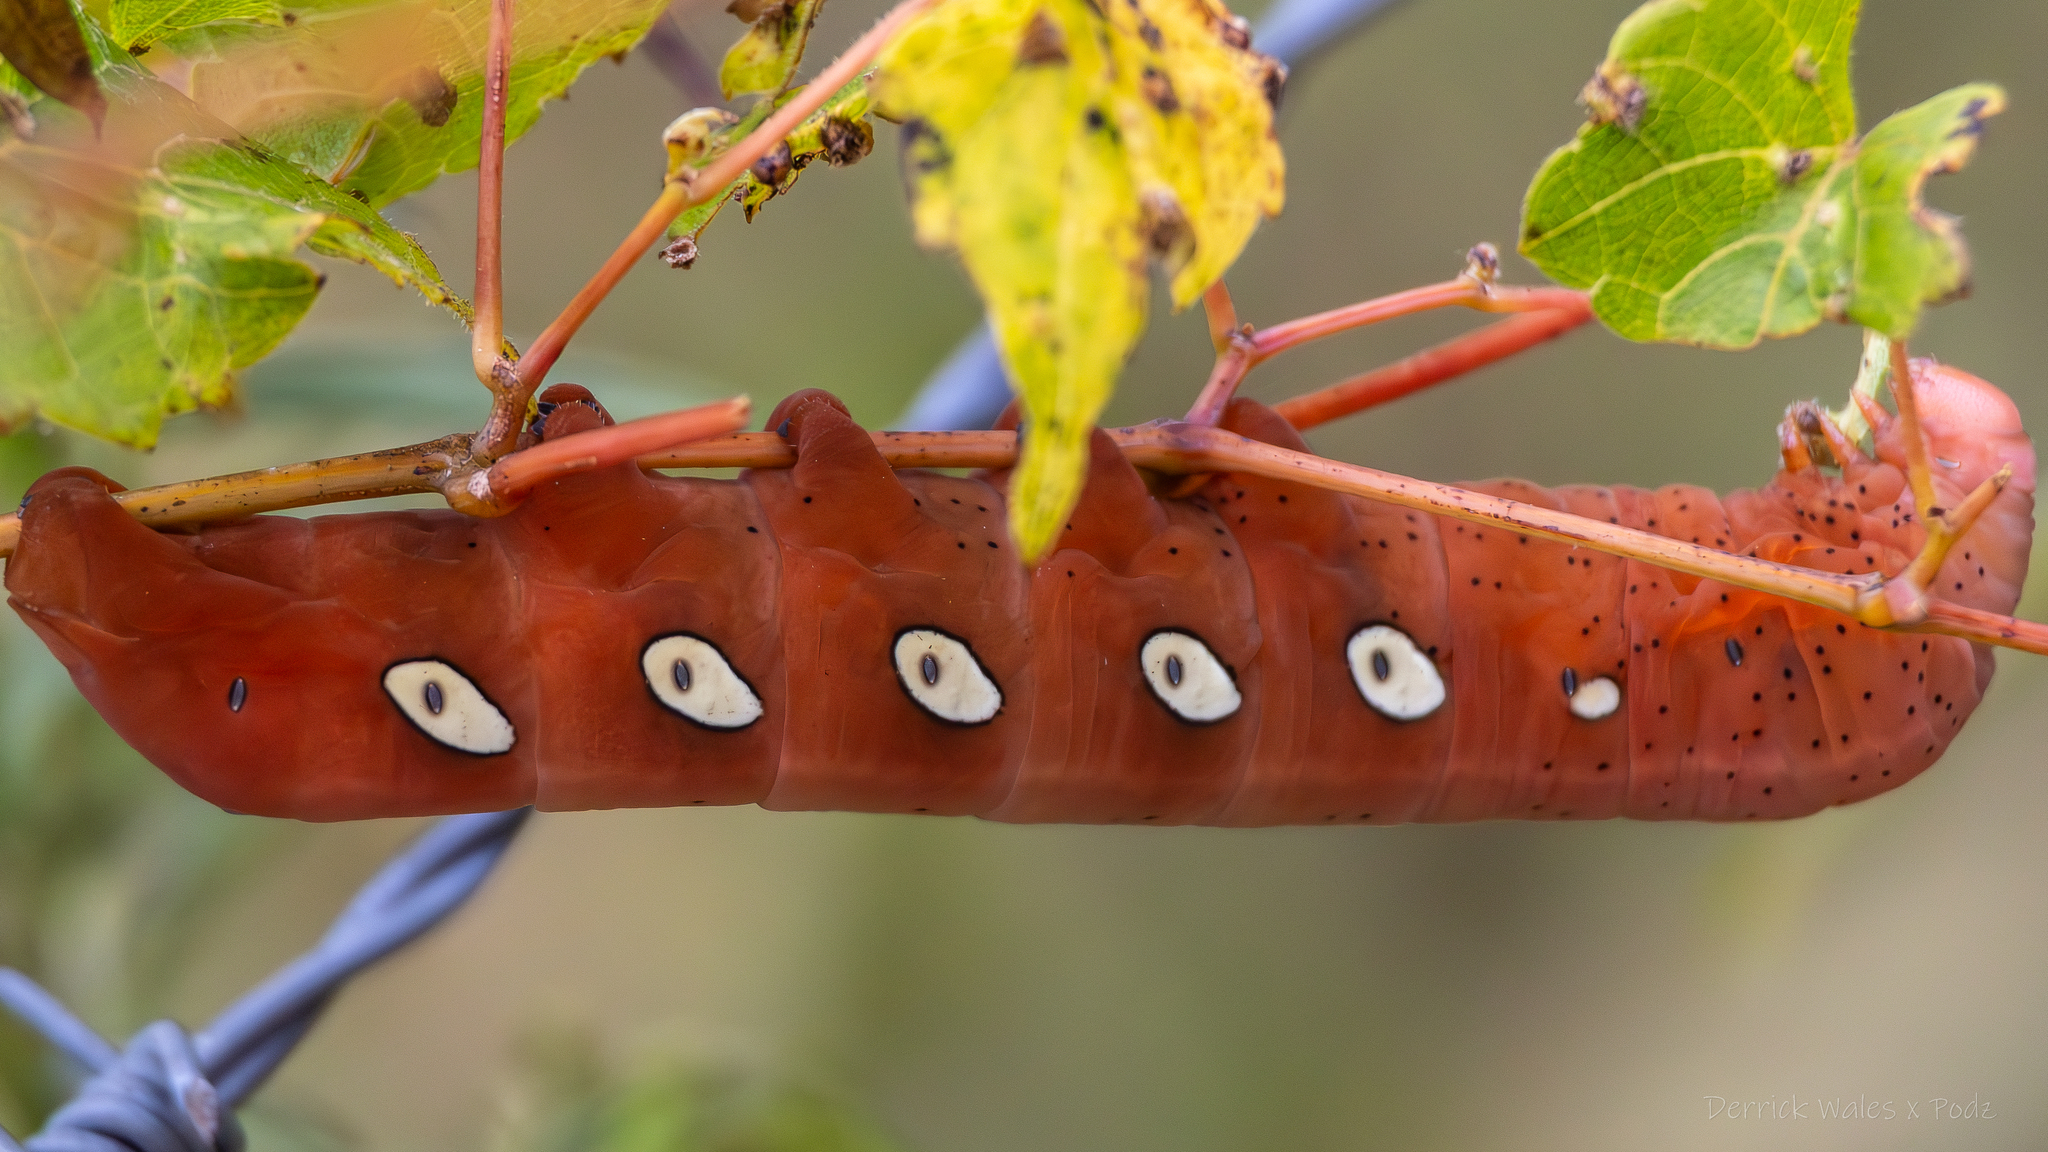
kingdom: Animalia
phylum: Arthropoda
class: Insecta
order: Lepidoptera
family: Sphingidae
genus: Eumorpha
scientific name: Eumorpha pandorus
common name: Pandora sphinx
